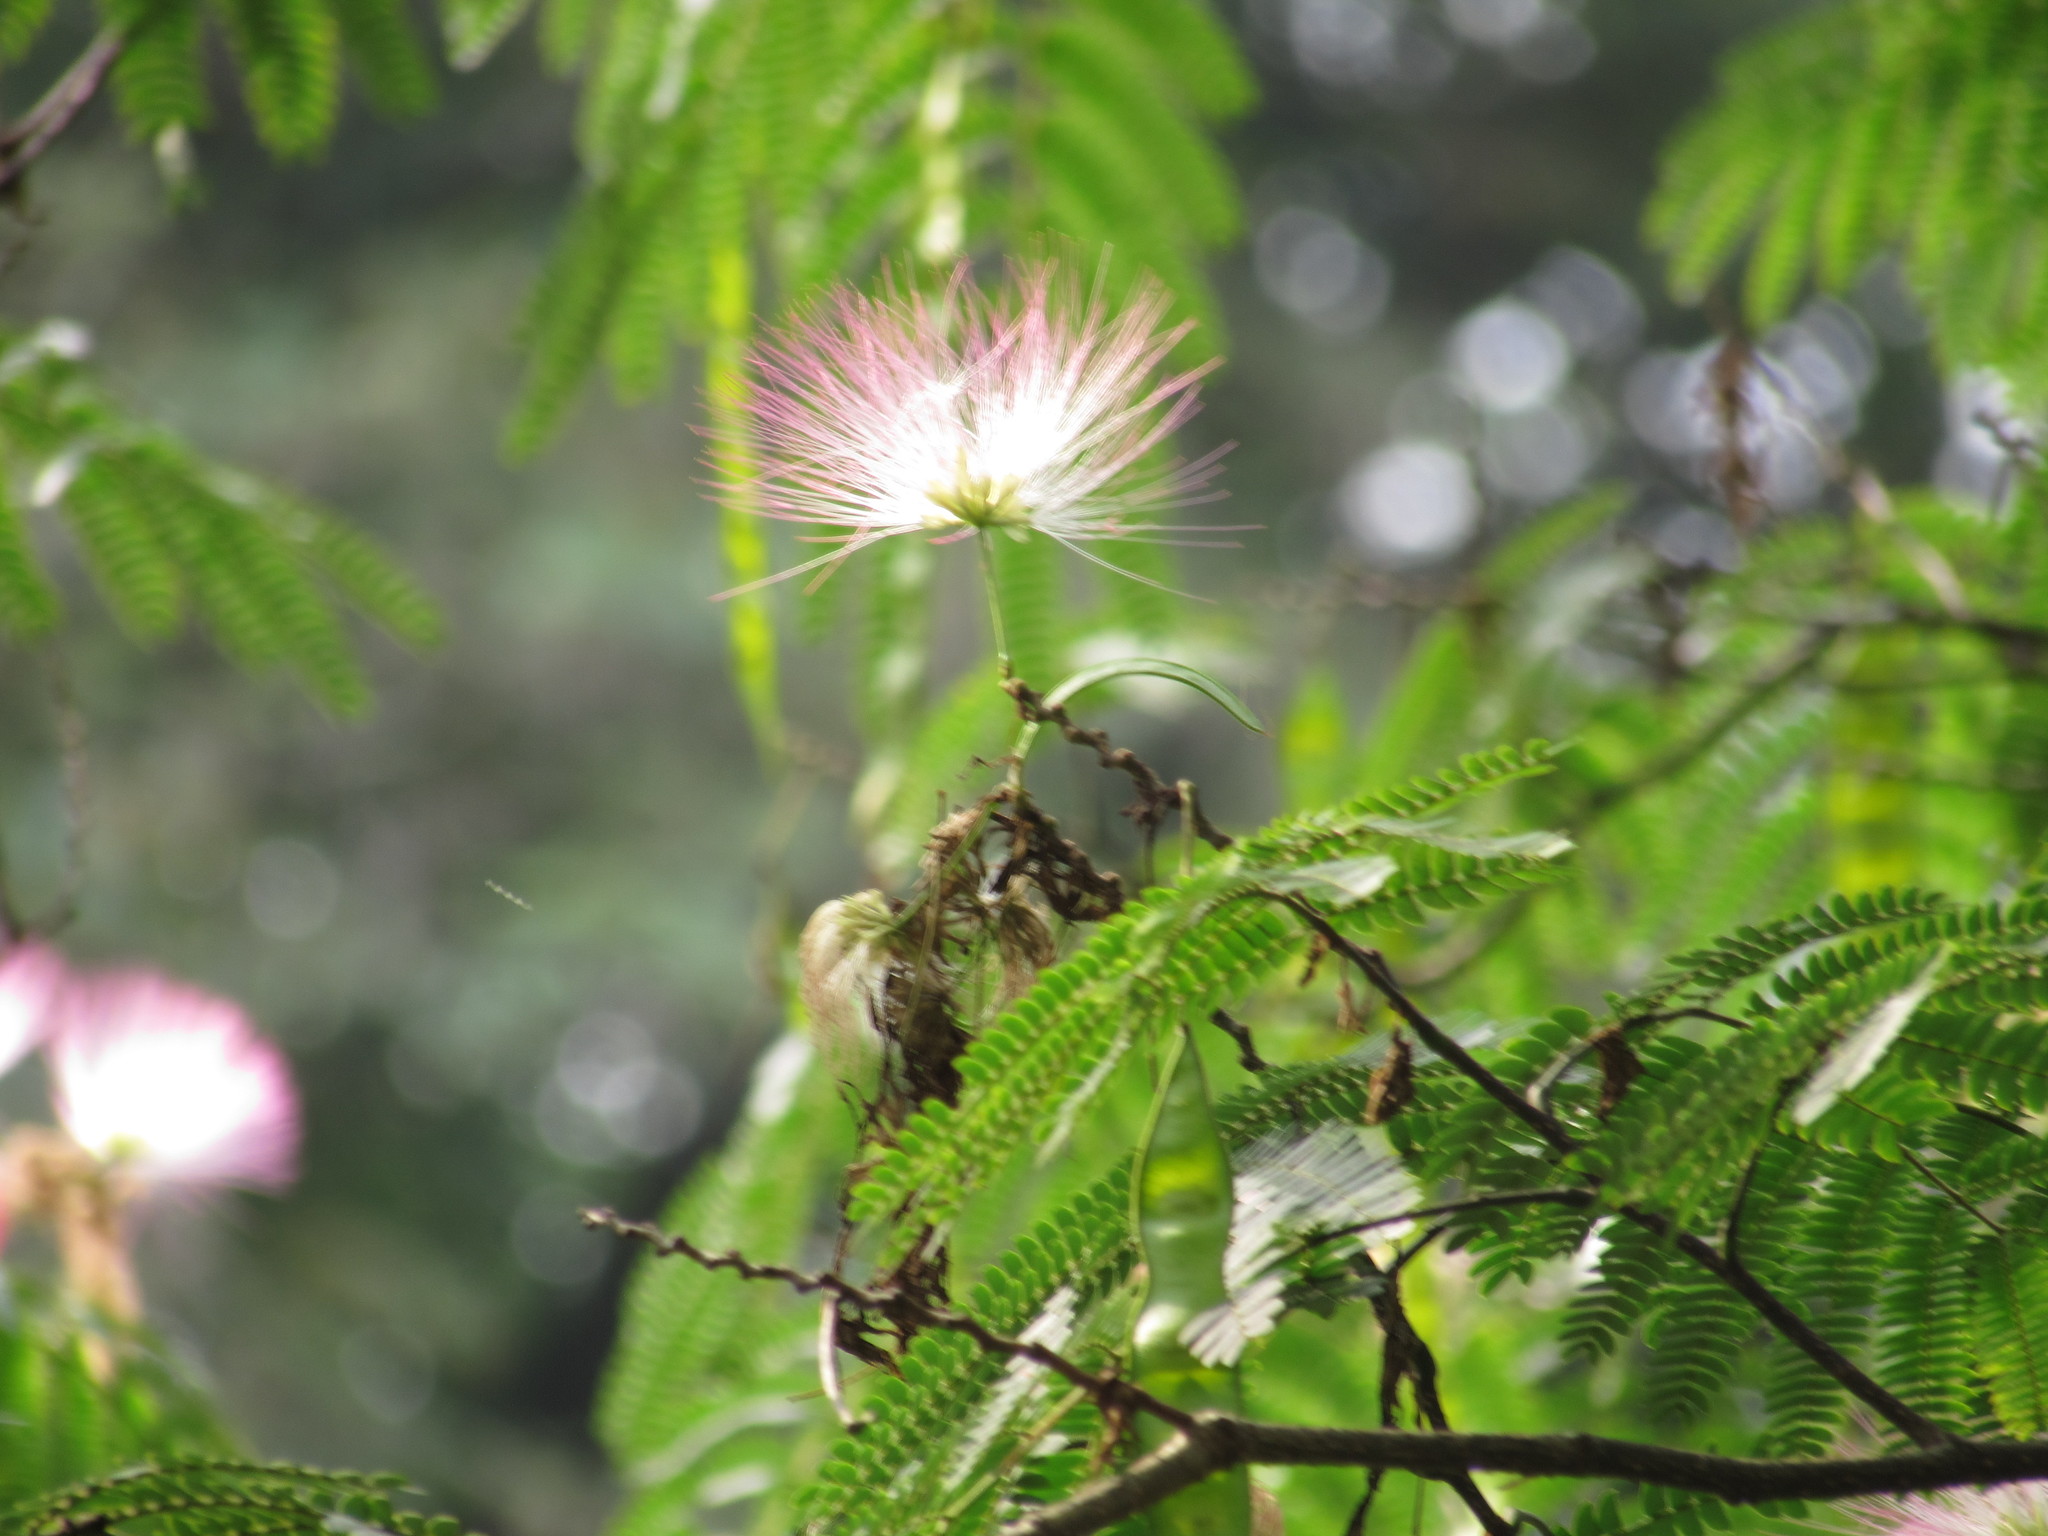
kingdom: Plantae
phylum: Tracheophyta
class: Magnoliopsida
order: Fabales
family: Fabaceae
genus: Albizia
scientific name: Albizia julibrissin
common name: Silktree
